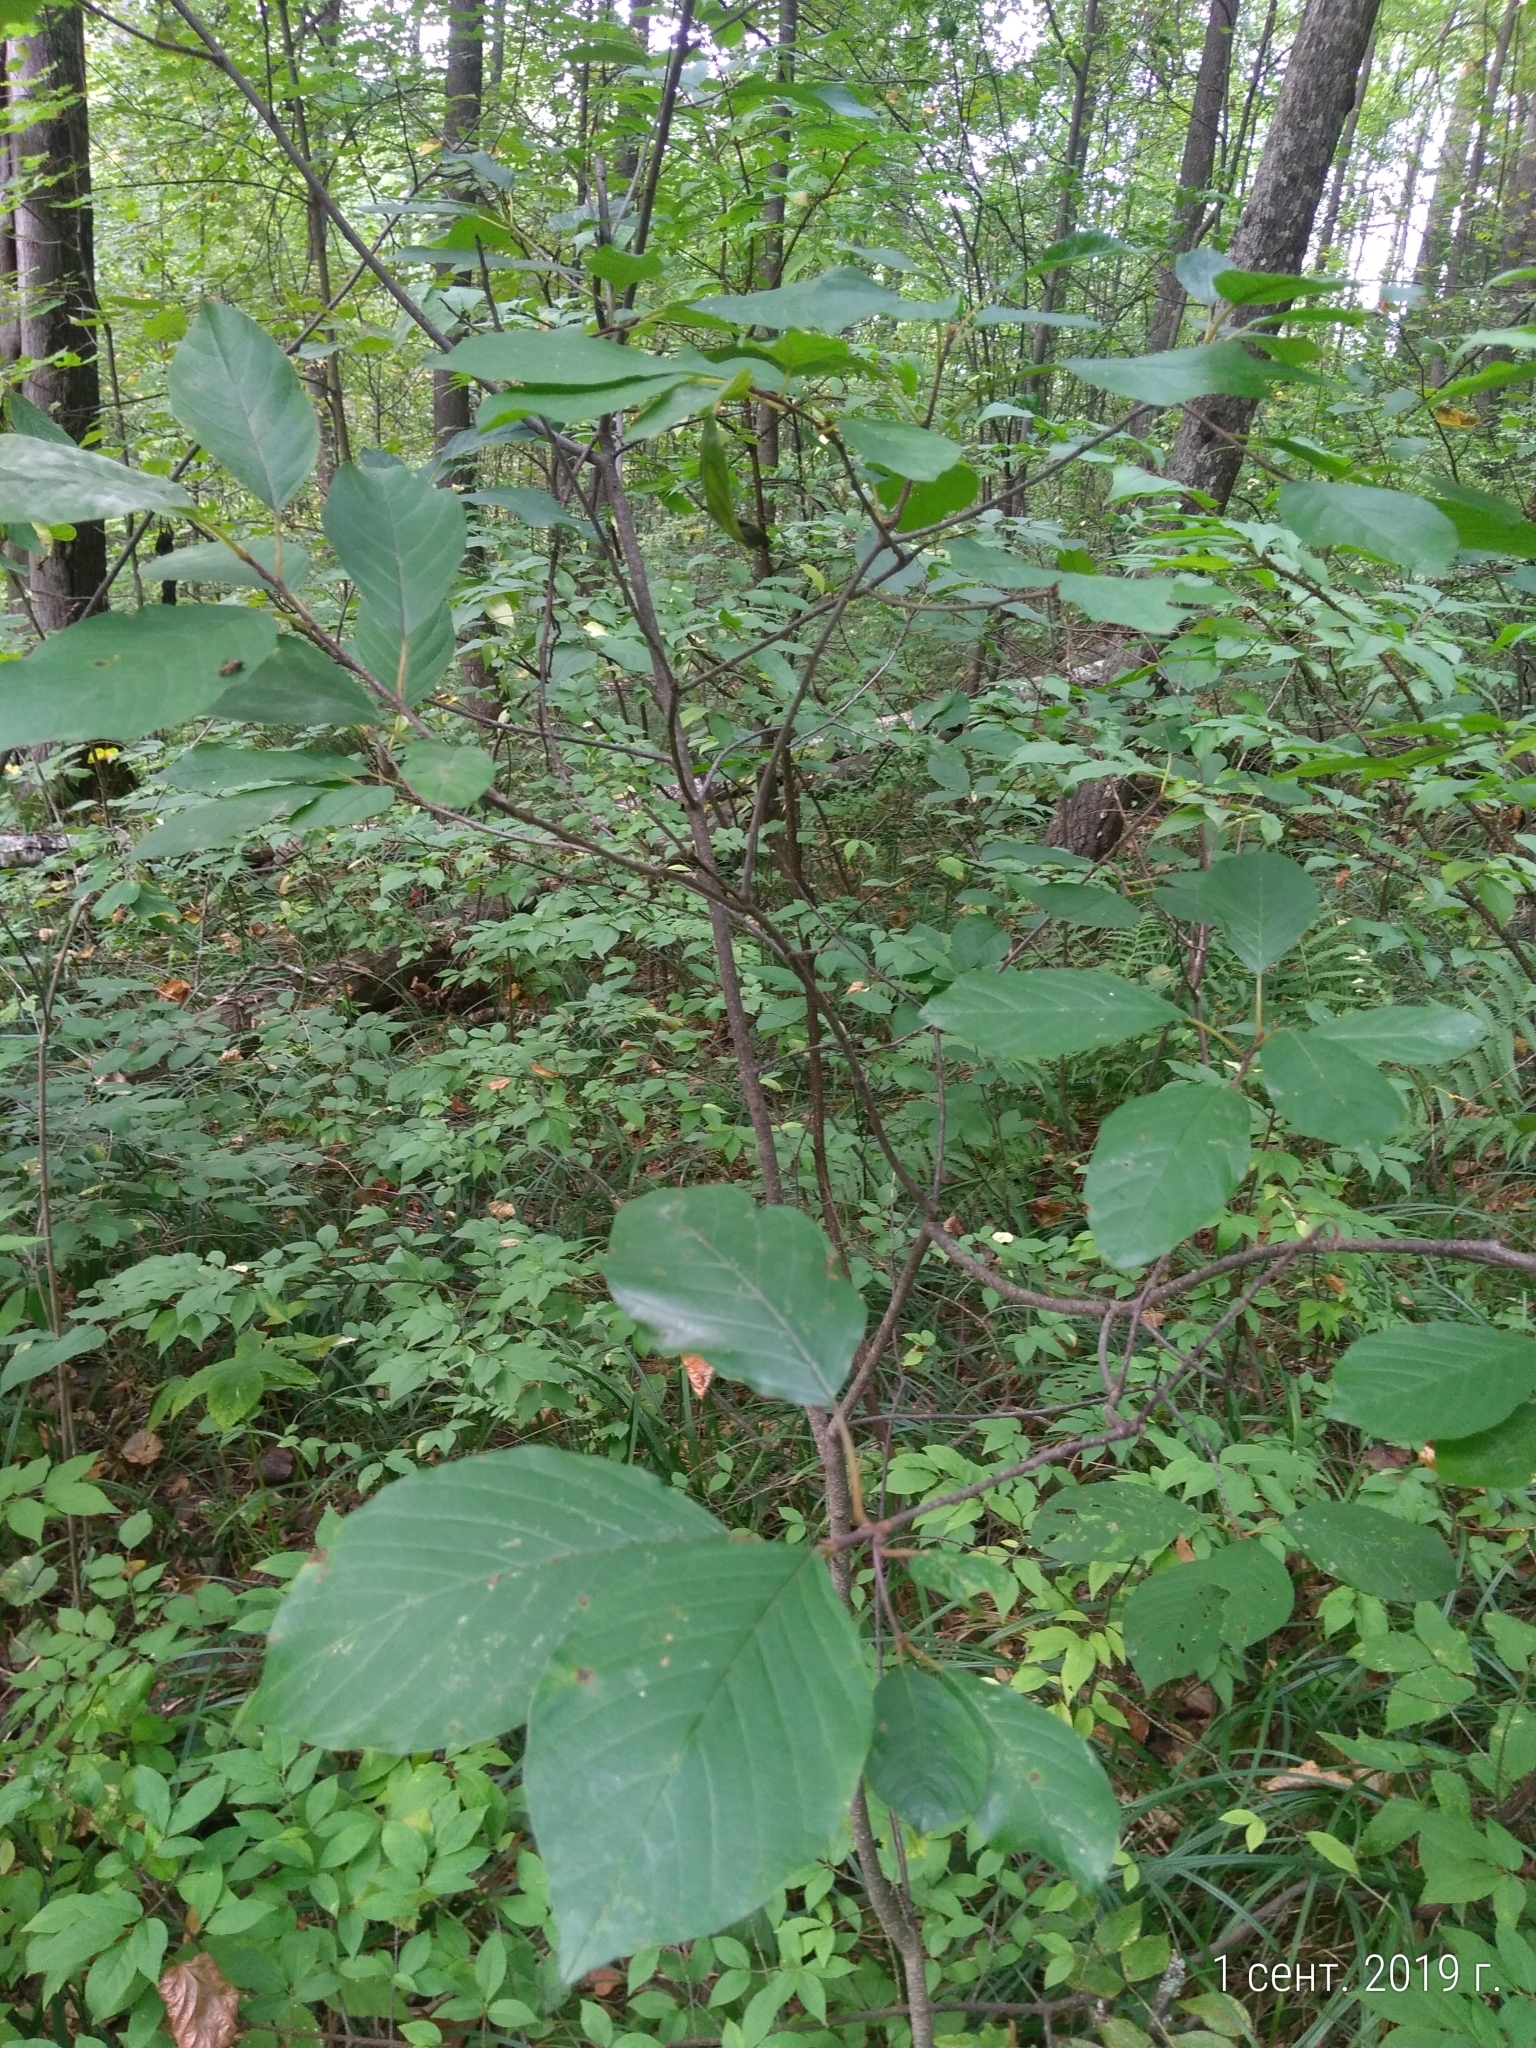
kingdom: Plantae
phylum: Tracheophyta
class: Magnoliopsida
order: Rosales
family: Rhamnaceae
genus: Frangula
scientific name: Frangula alnus
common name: Alder buckthorn
